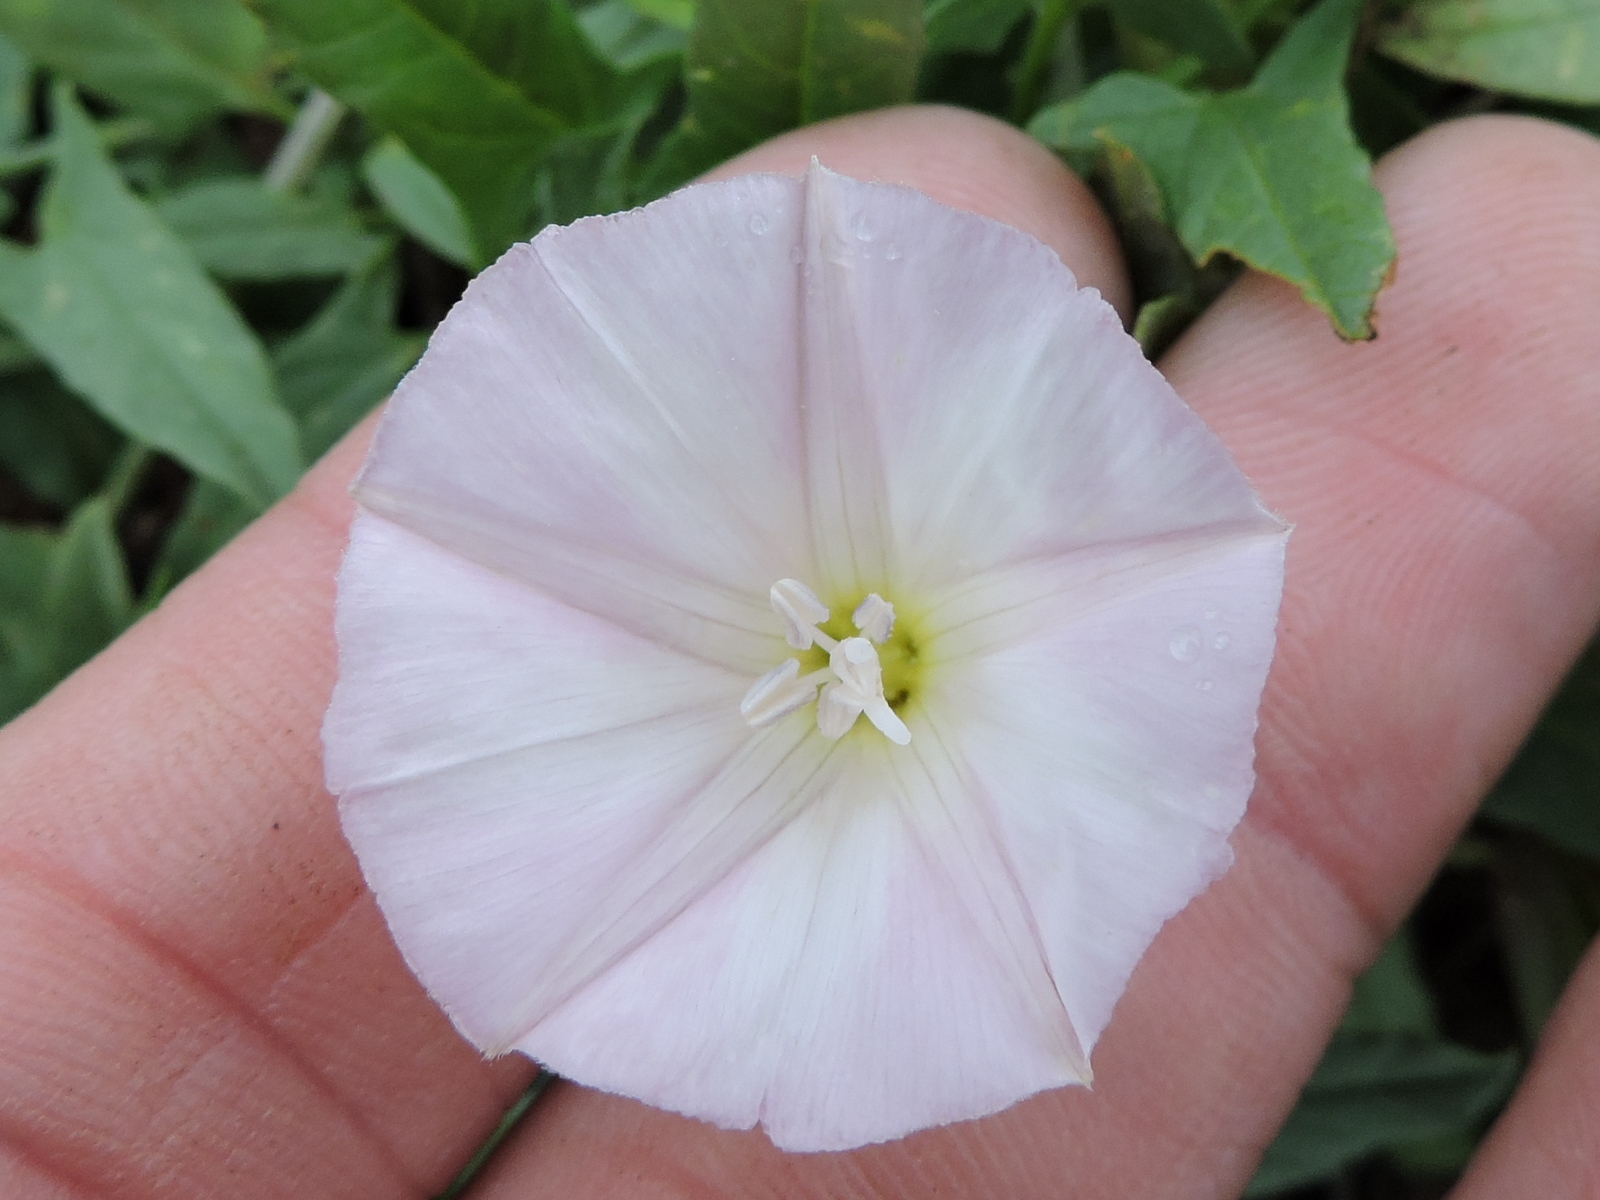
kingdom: Plantae
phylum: Tracheophyta
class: Magnoliopsida
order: Solanales
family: Convolvulaceae
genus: Convolvulus
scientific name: Convolvulus arvensis
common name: Field bindweed
